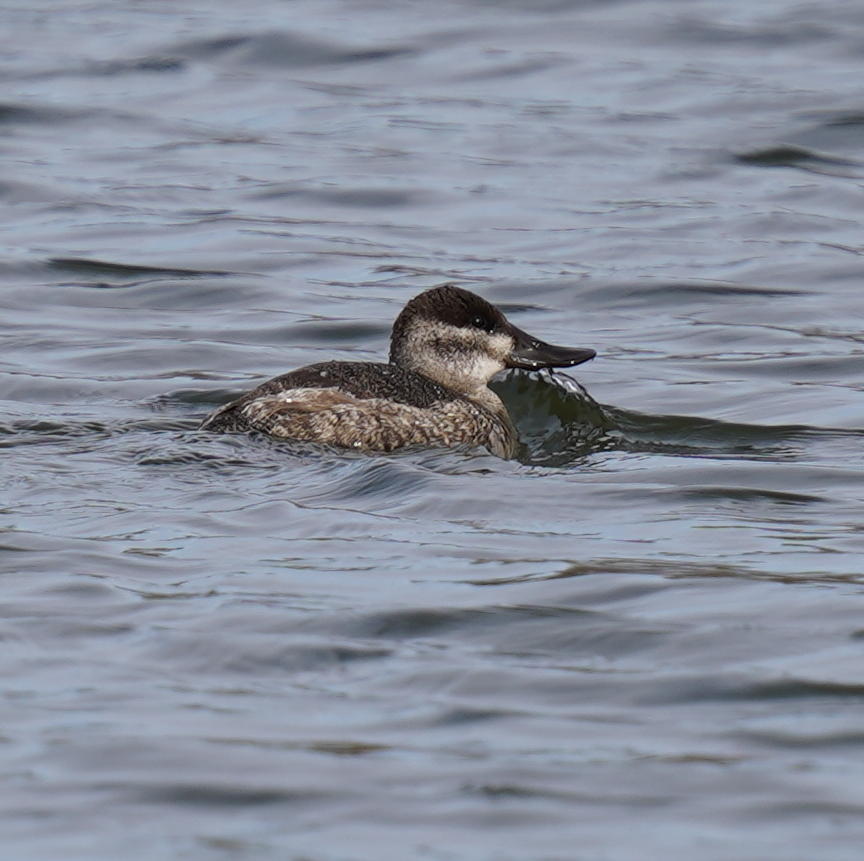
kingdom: Animalia
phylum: Chordata
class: Aves
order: Anseriformes
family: Anatidae
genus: Oxyura
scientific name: Oxyura jamaicensis
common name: Ruddy duck
